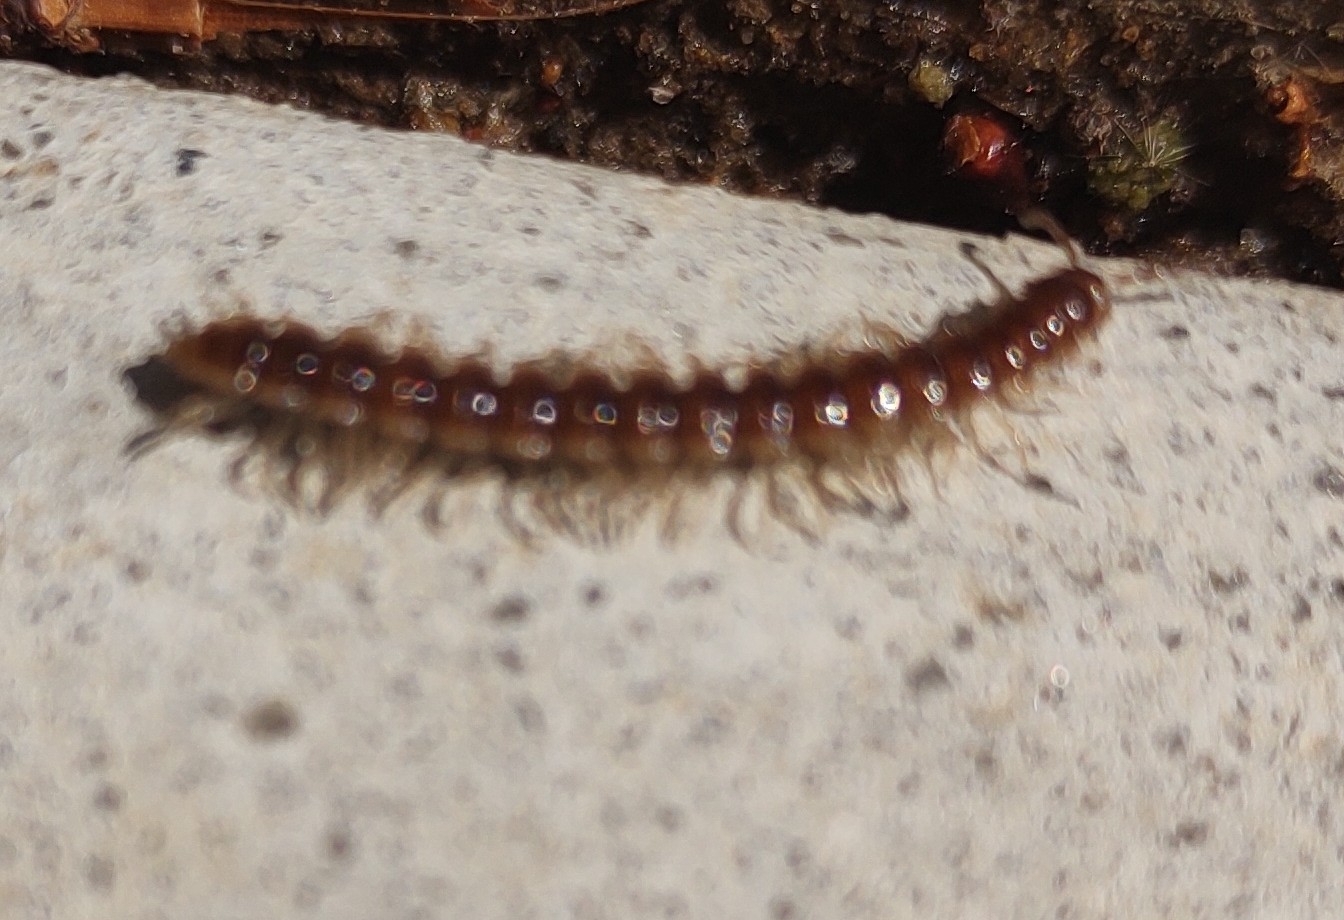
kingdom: Animalia
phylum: Arthropoda
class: Diplopoda
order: Polydesmida
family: Paradoxosomatidae
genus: Oxidus
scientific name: Oxidus gracilis
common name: Greenhouse millipede
